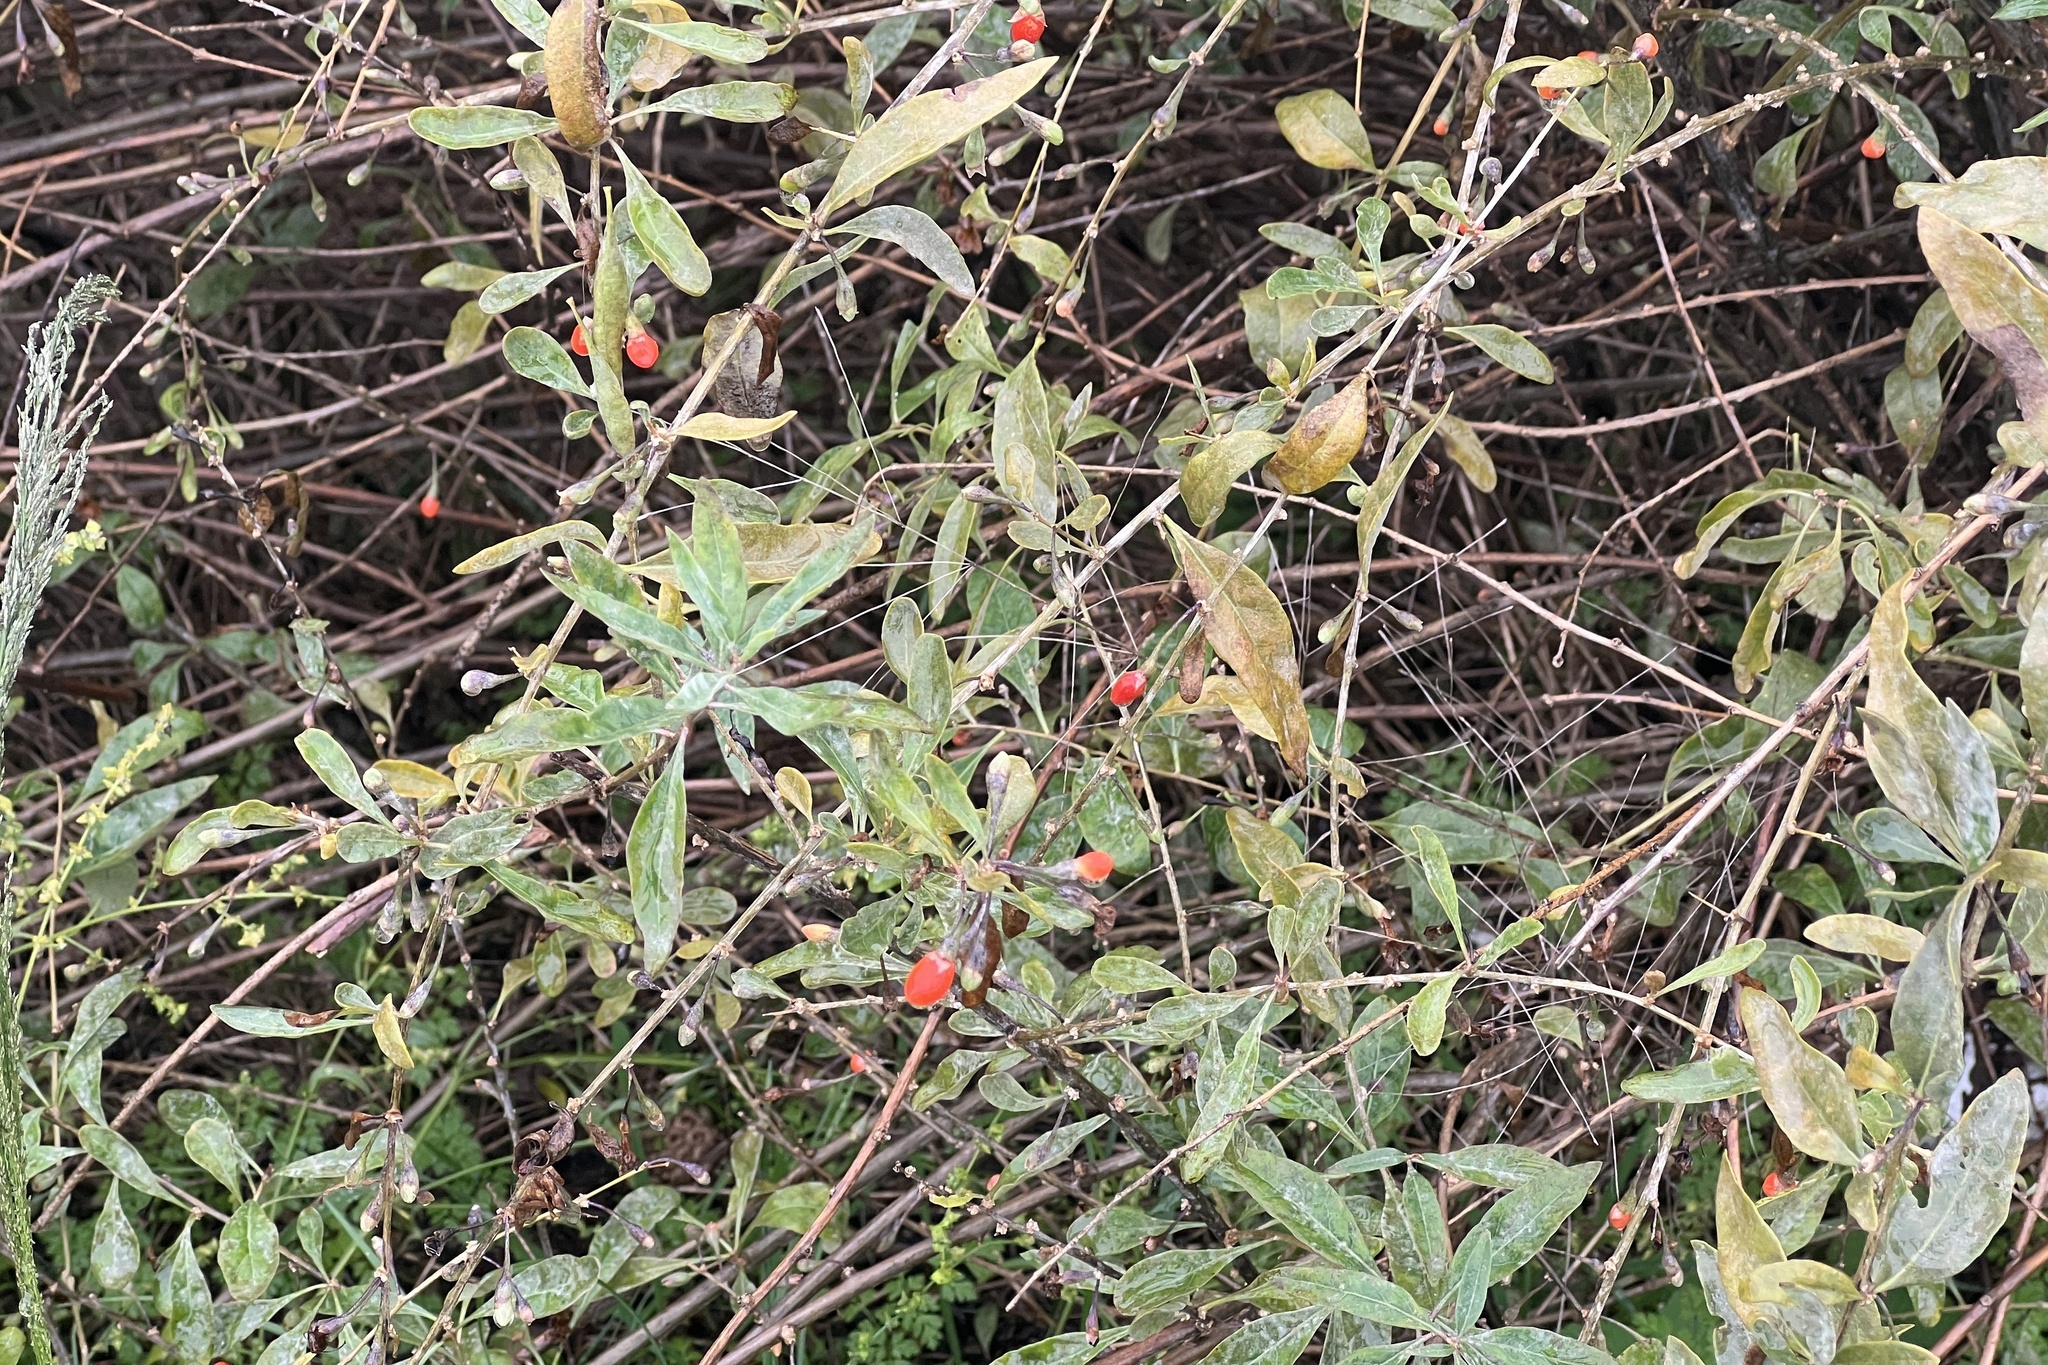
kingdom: Plantae
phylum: Tracheophyta
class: Magnoliopsida
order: Solanales
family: Solanaceae
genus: Lycium
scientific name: Lycium barbarum
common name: Duke of argyll's teaplant
